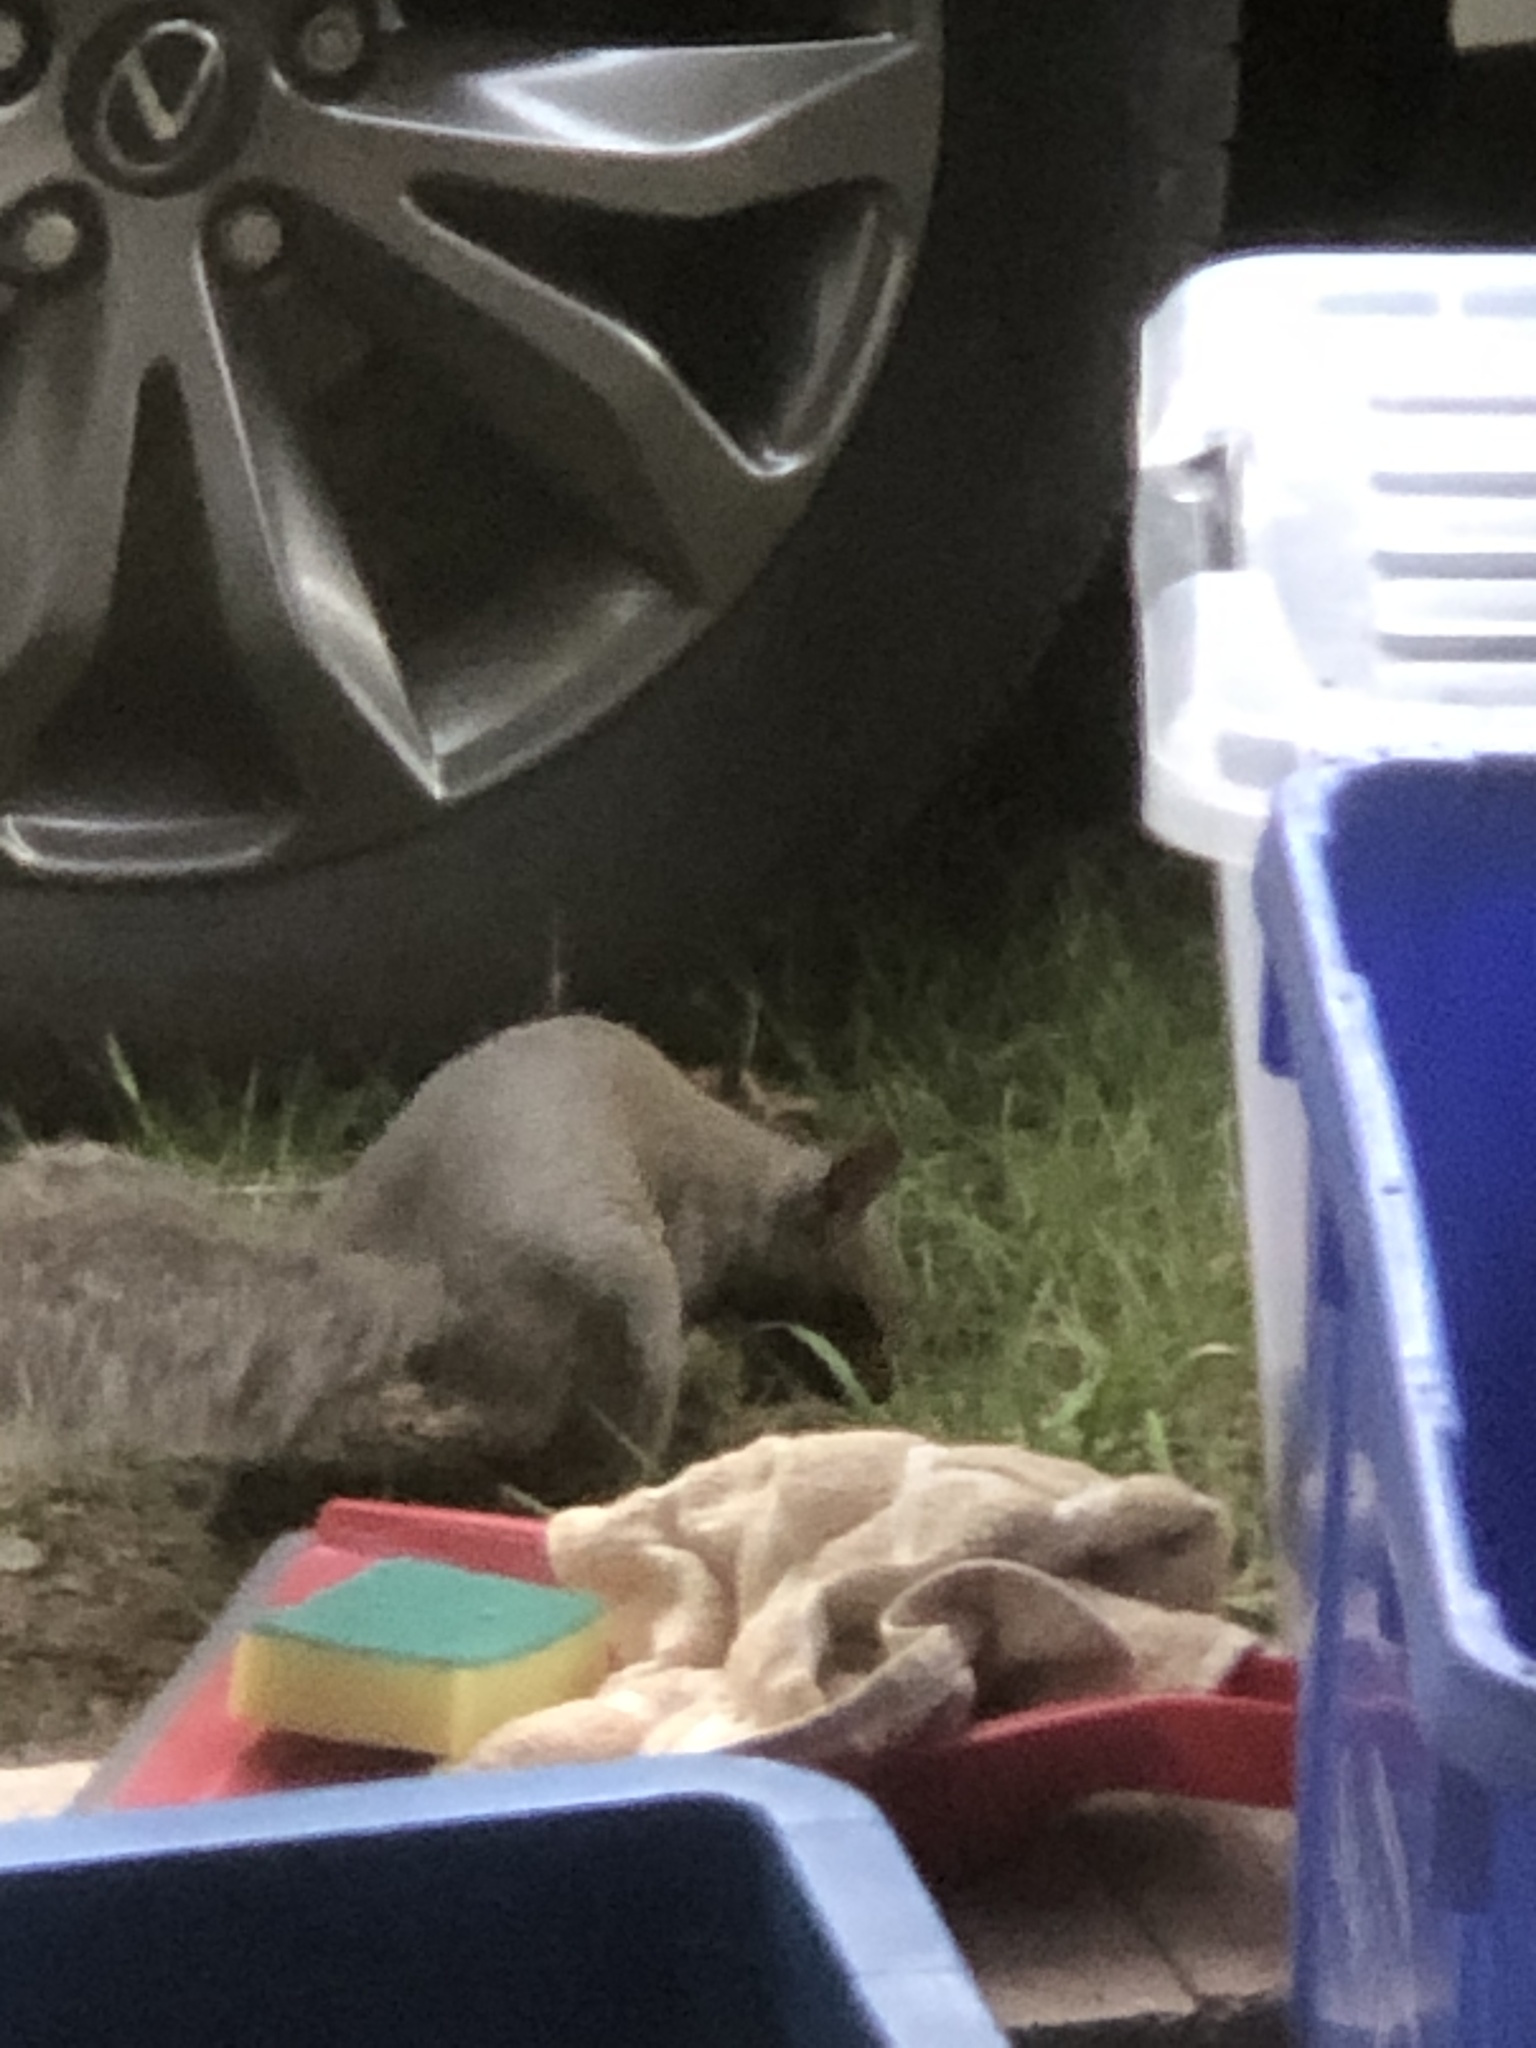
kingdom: Animalia
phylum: Chordata
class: Mammalia
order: Rodentia
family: Sciuridae
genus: Sciurus
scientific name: Sciurus carolinensis
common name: Eastern gray squirrel
